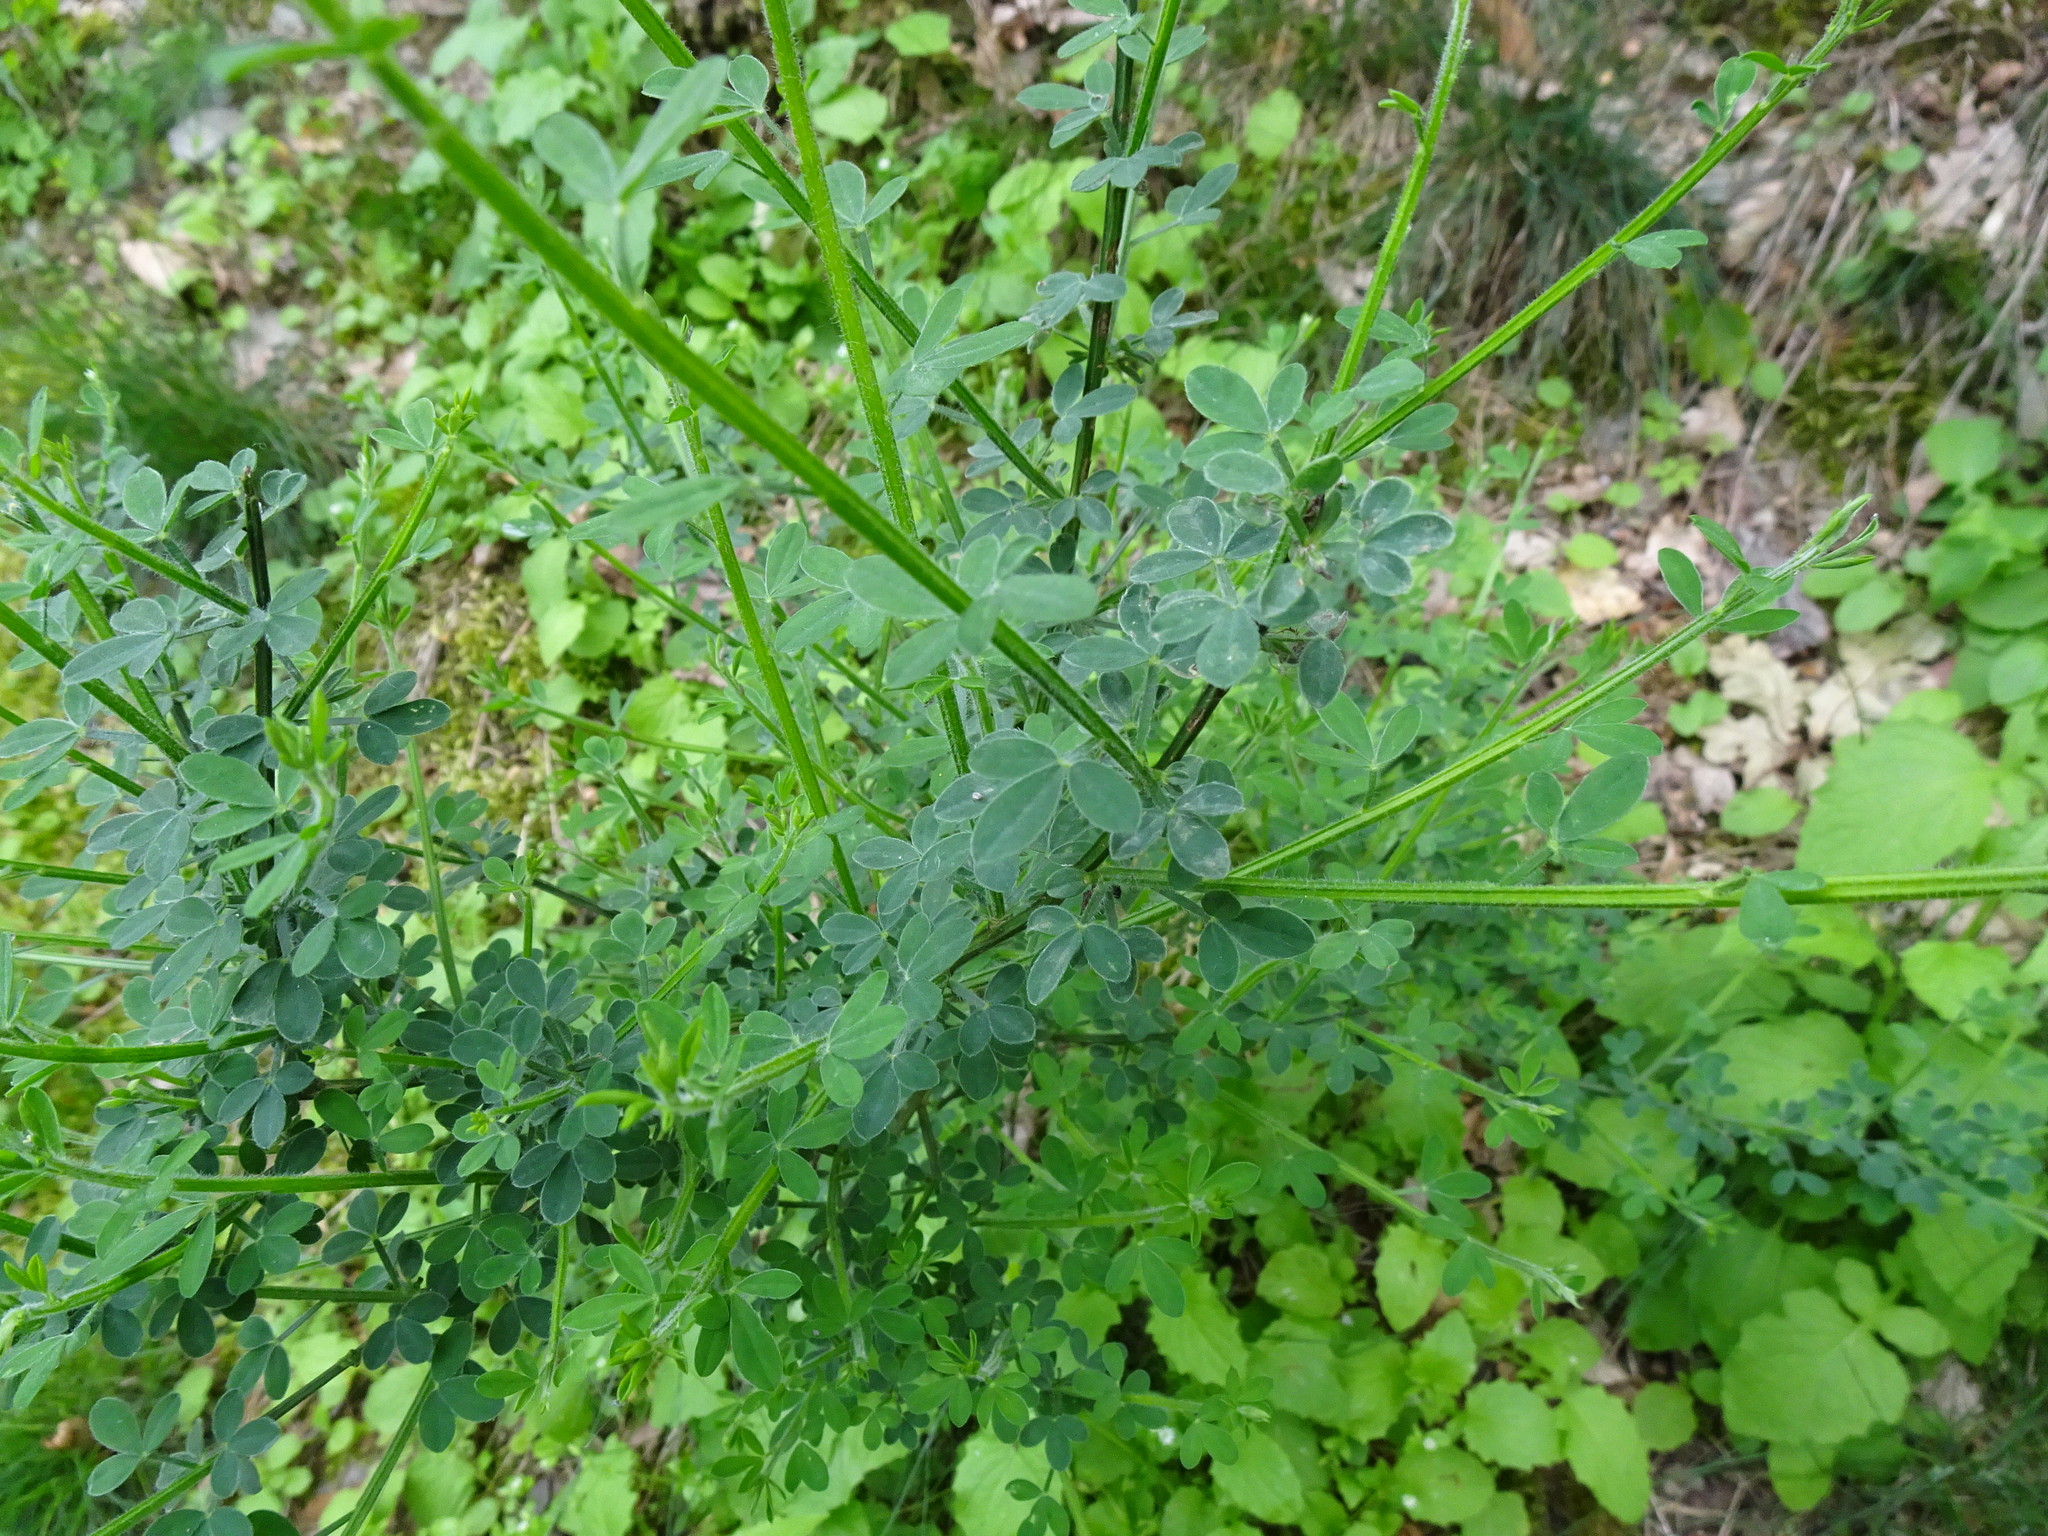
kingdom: Plantae
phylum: Tracheophyta
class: Magnoliopsida
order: Fabales
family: Fabaceae
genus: Cytisus
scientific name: Cytisus scoparius
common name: Scotch broom
